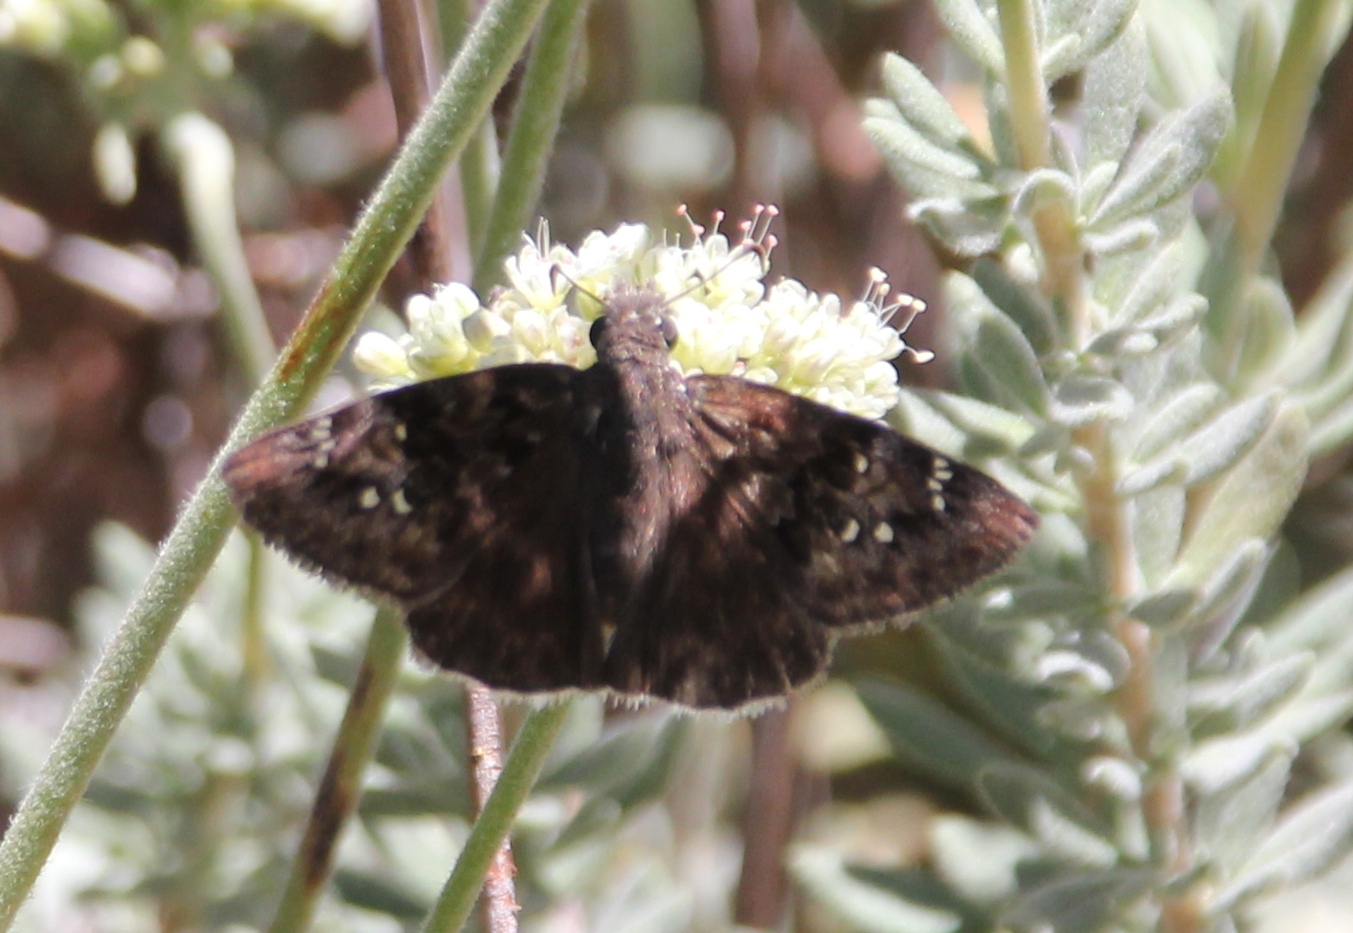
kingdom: Animalia
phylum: Arthropoda
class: Insecta
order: Lepidoptera
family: Hesperiidae
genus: Erynnis
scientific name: Erynnis tristis
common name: Mournful duskywing
